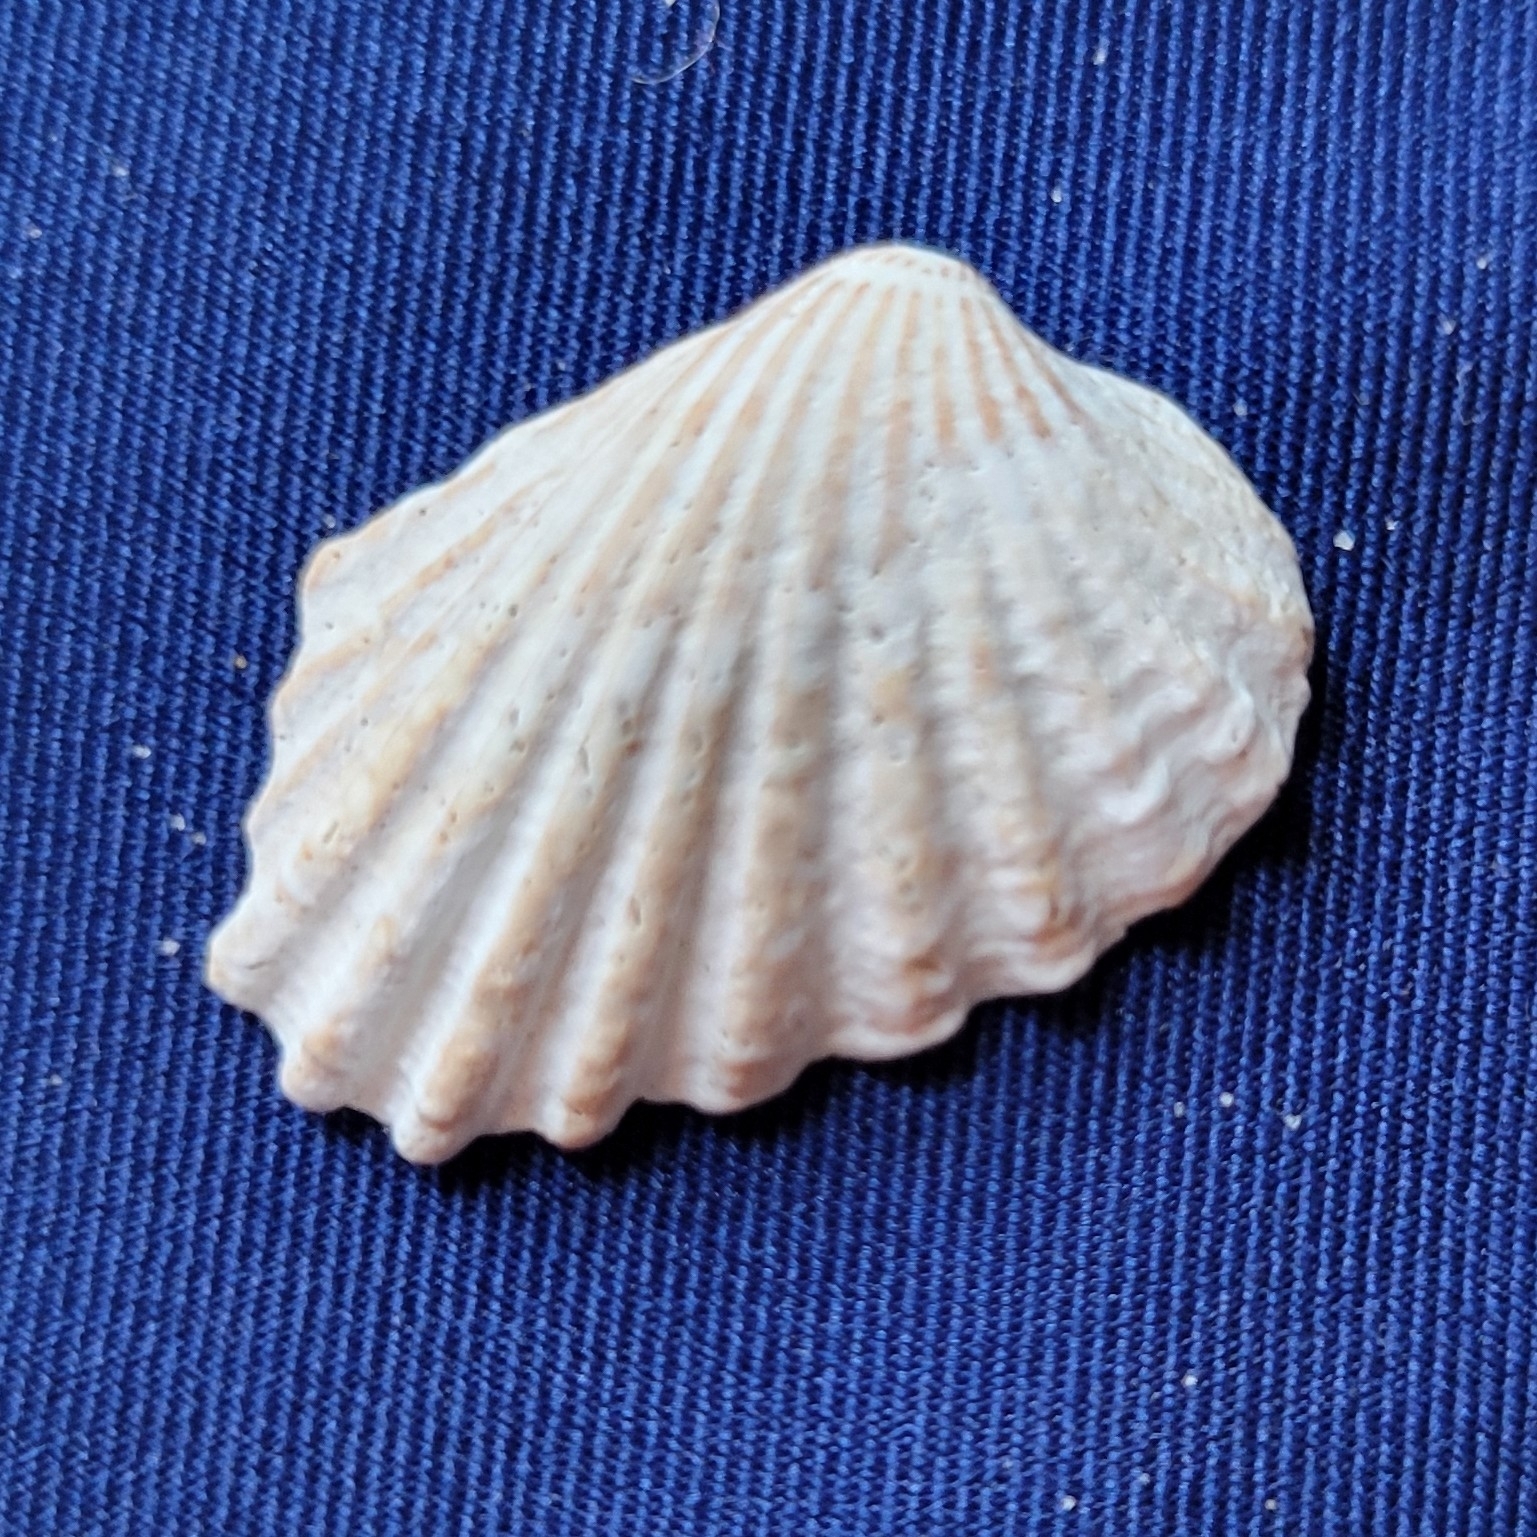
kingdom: Animalia
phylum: Mollusca
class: Bivalvia
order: Carditida
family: Carditidae
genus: Cardites
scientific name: Cardites floridanus
